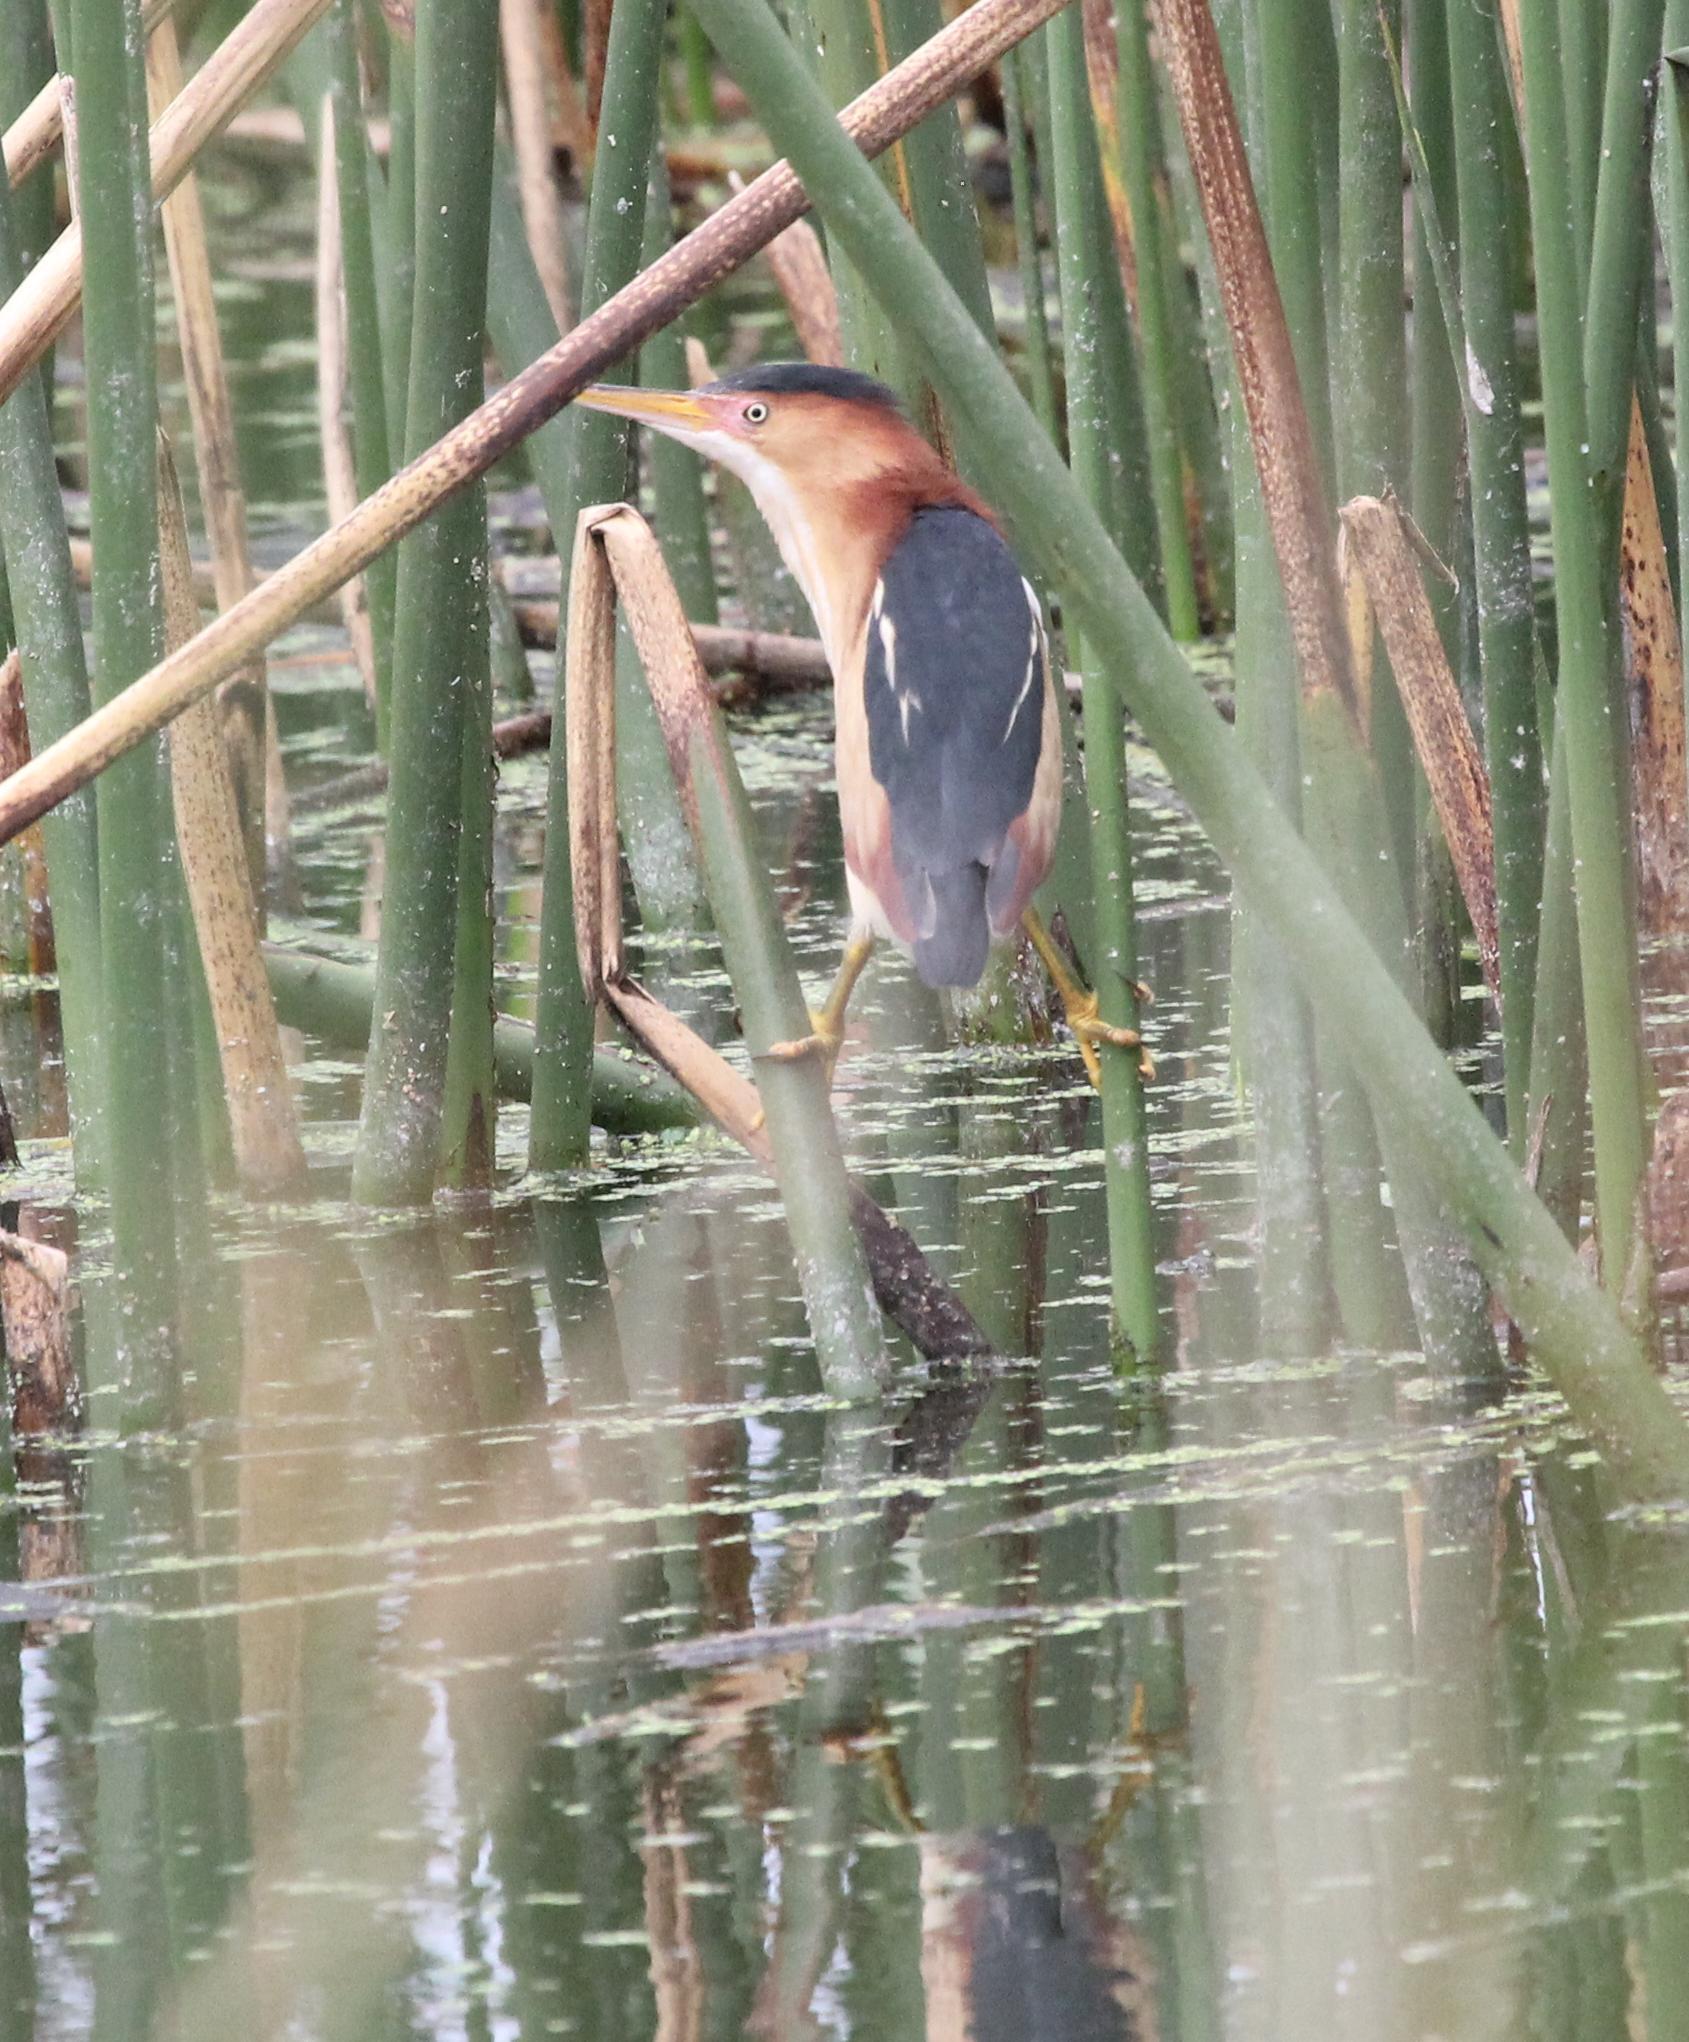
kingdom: Animalia
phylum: Chordata
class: Aves
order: Pelecaniformes
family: Ardeidae
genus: Ixobrychus
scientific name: Ixobrychus exilis
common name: Least bittern
